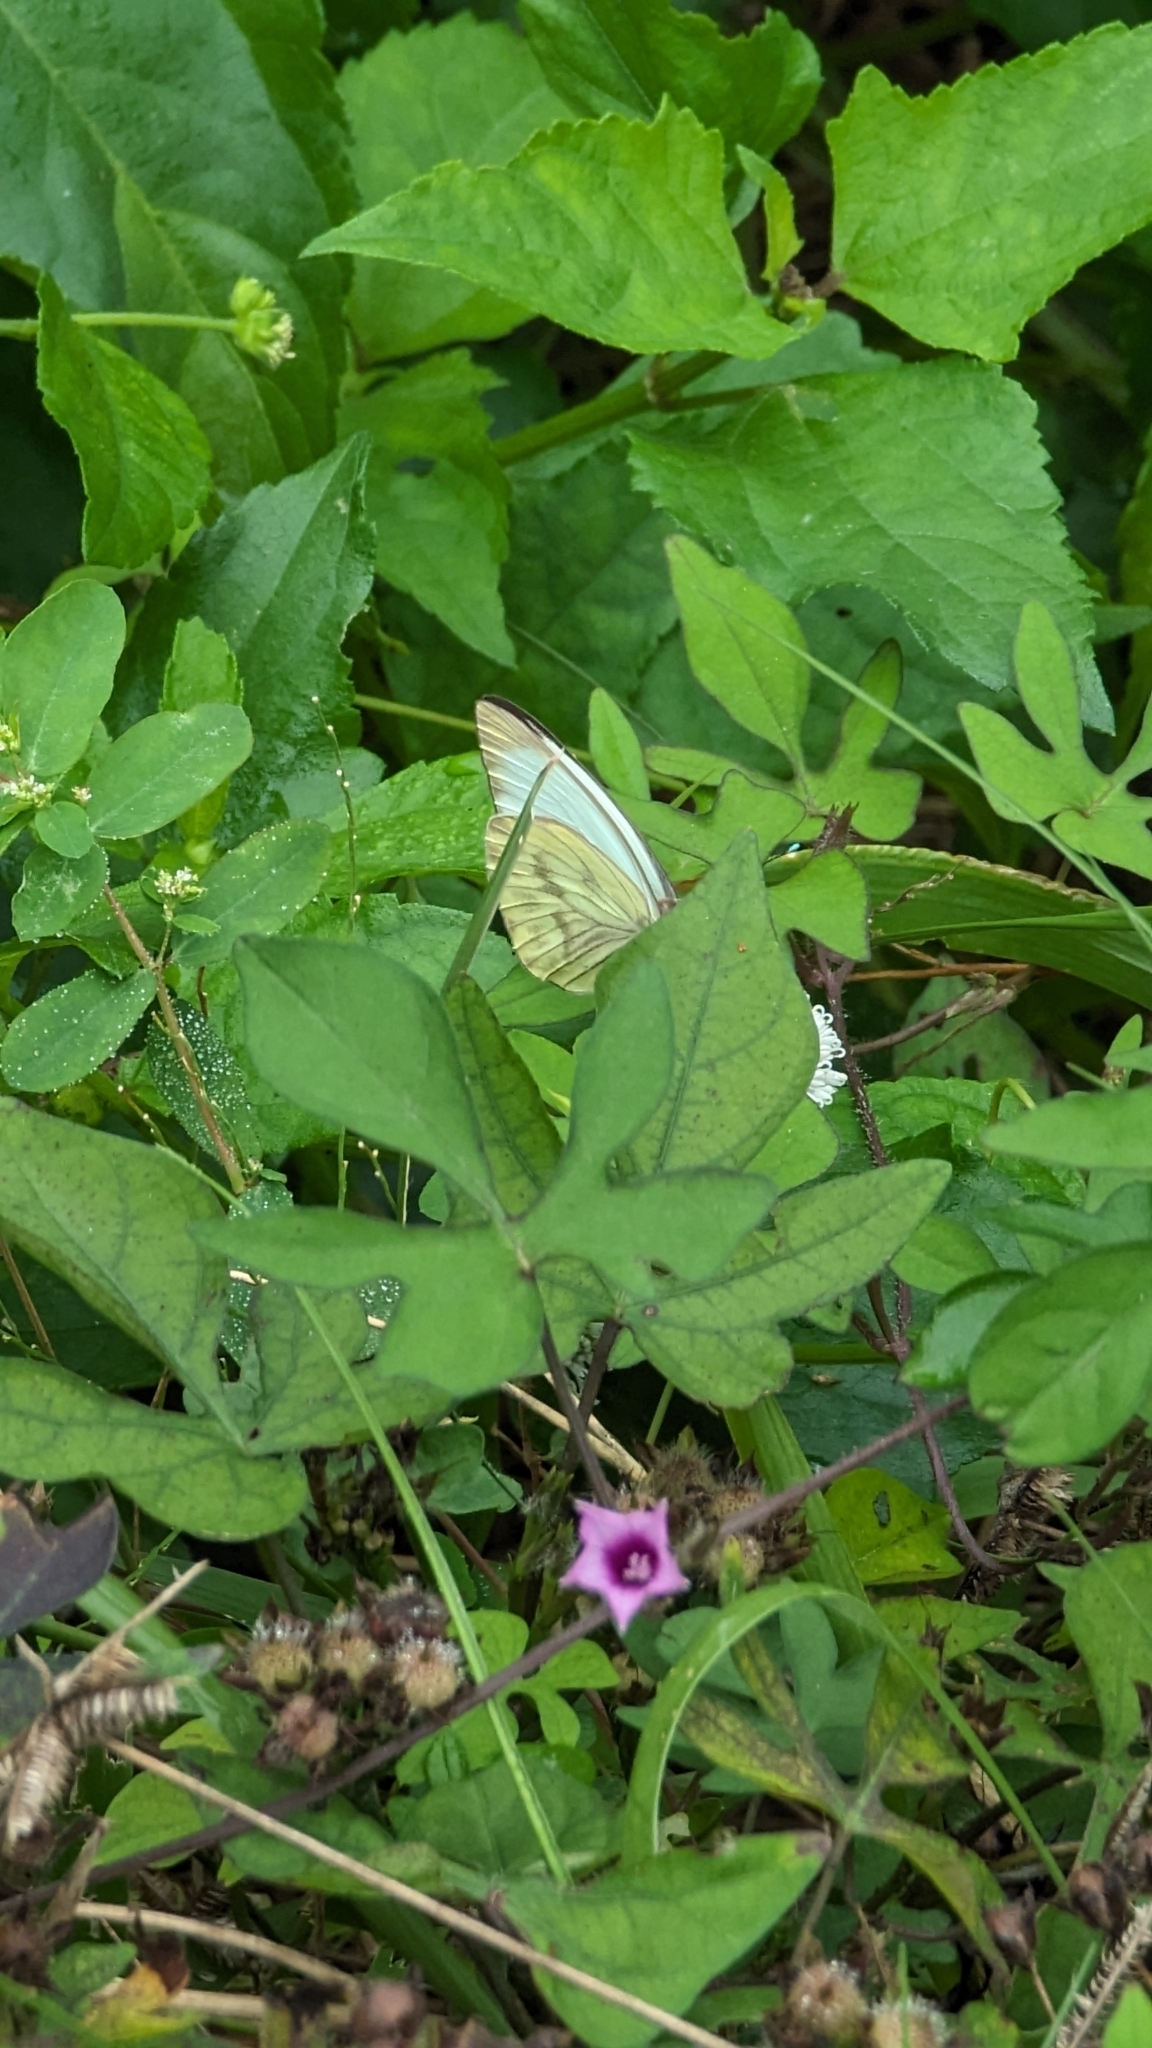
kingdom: Animalia
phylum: Arthropoda
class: Insecta
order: Lepidoptera
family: Pieridae
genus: Ascia
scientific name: Ascia monuste
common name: Great southern white
